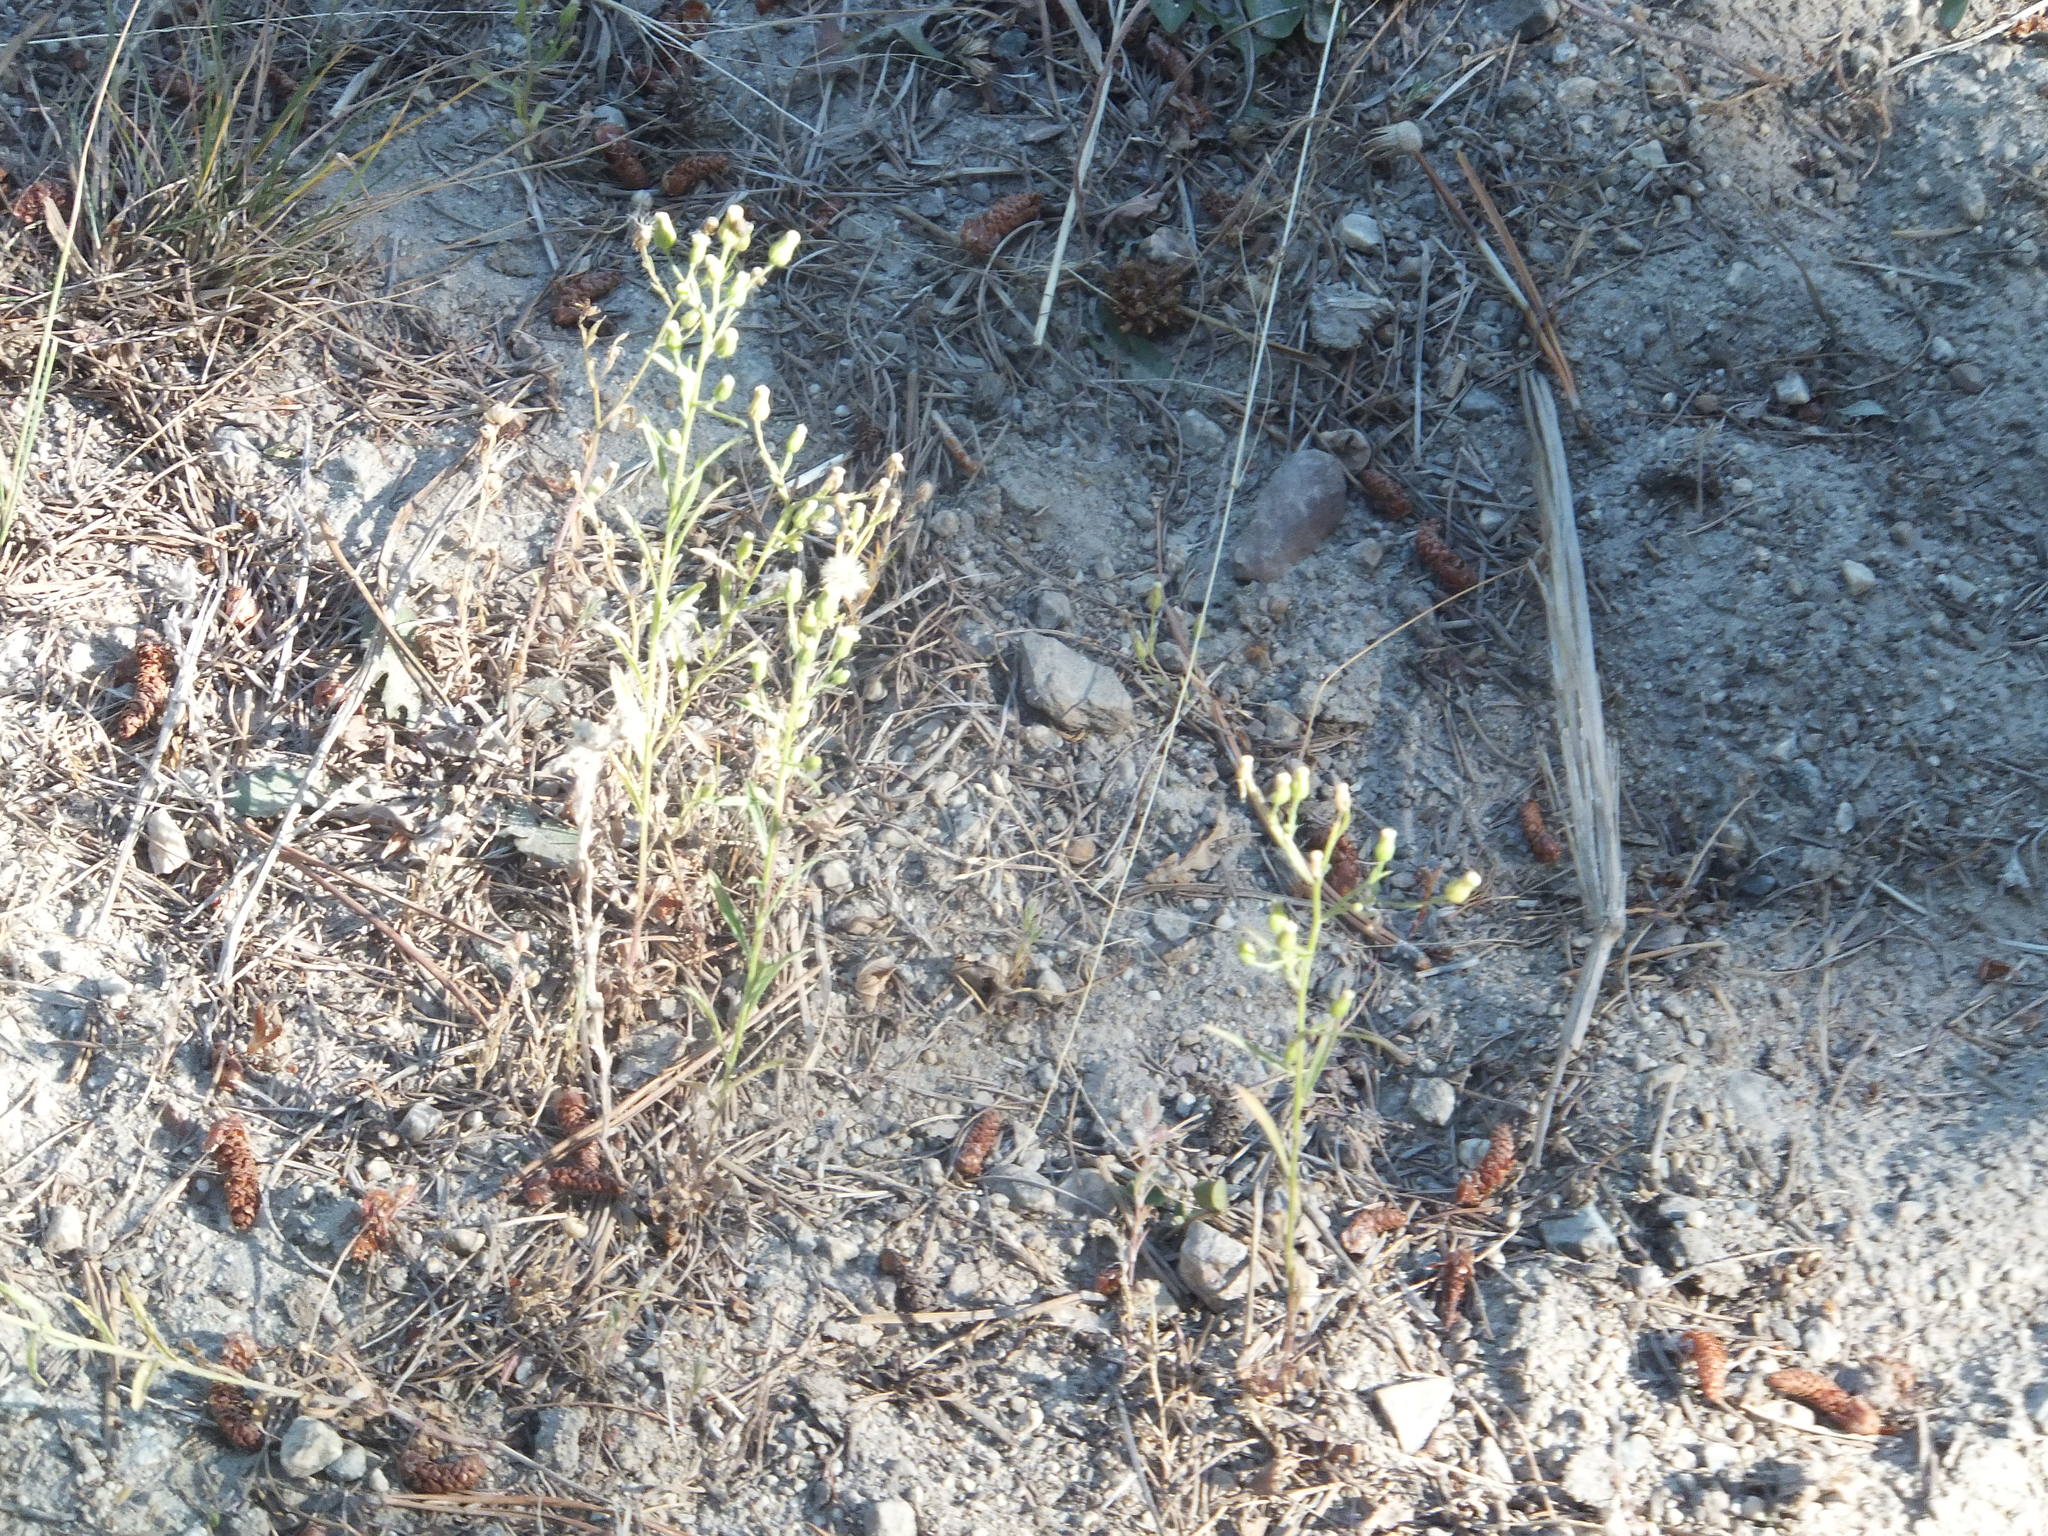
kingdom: Plantae
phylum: Tracheophyta
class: Magnoliopsida
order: Asterales
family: Asteraceae
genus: Erigeron
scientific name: Erigeron canadensis
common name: Canadian fleabane
